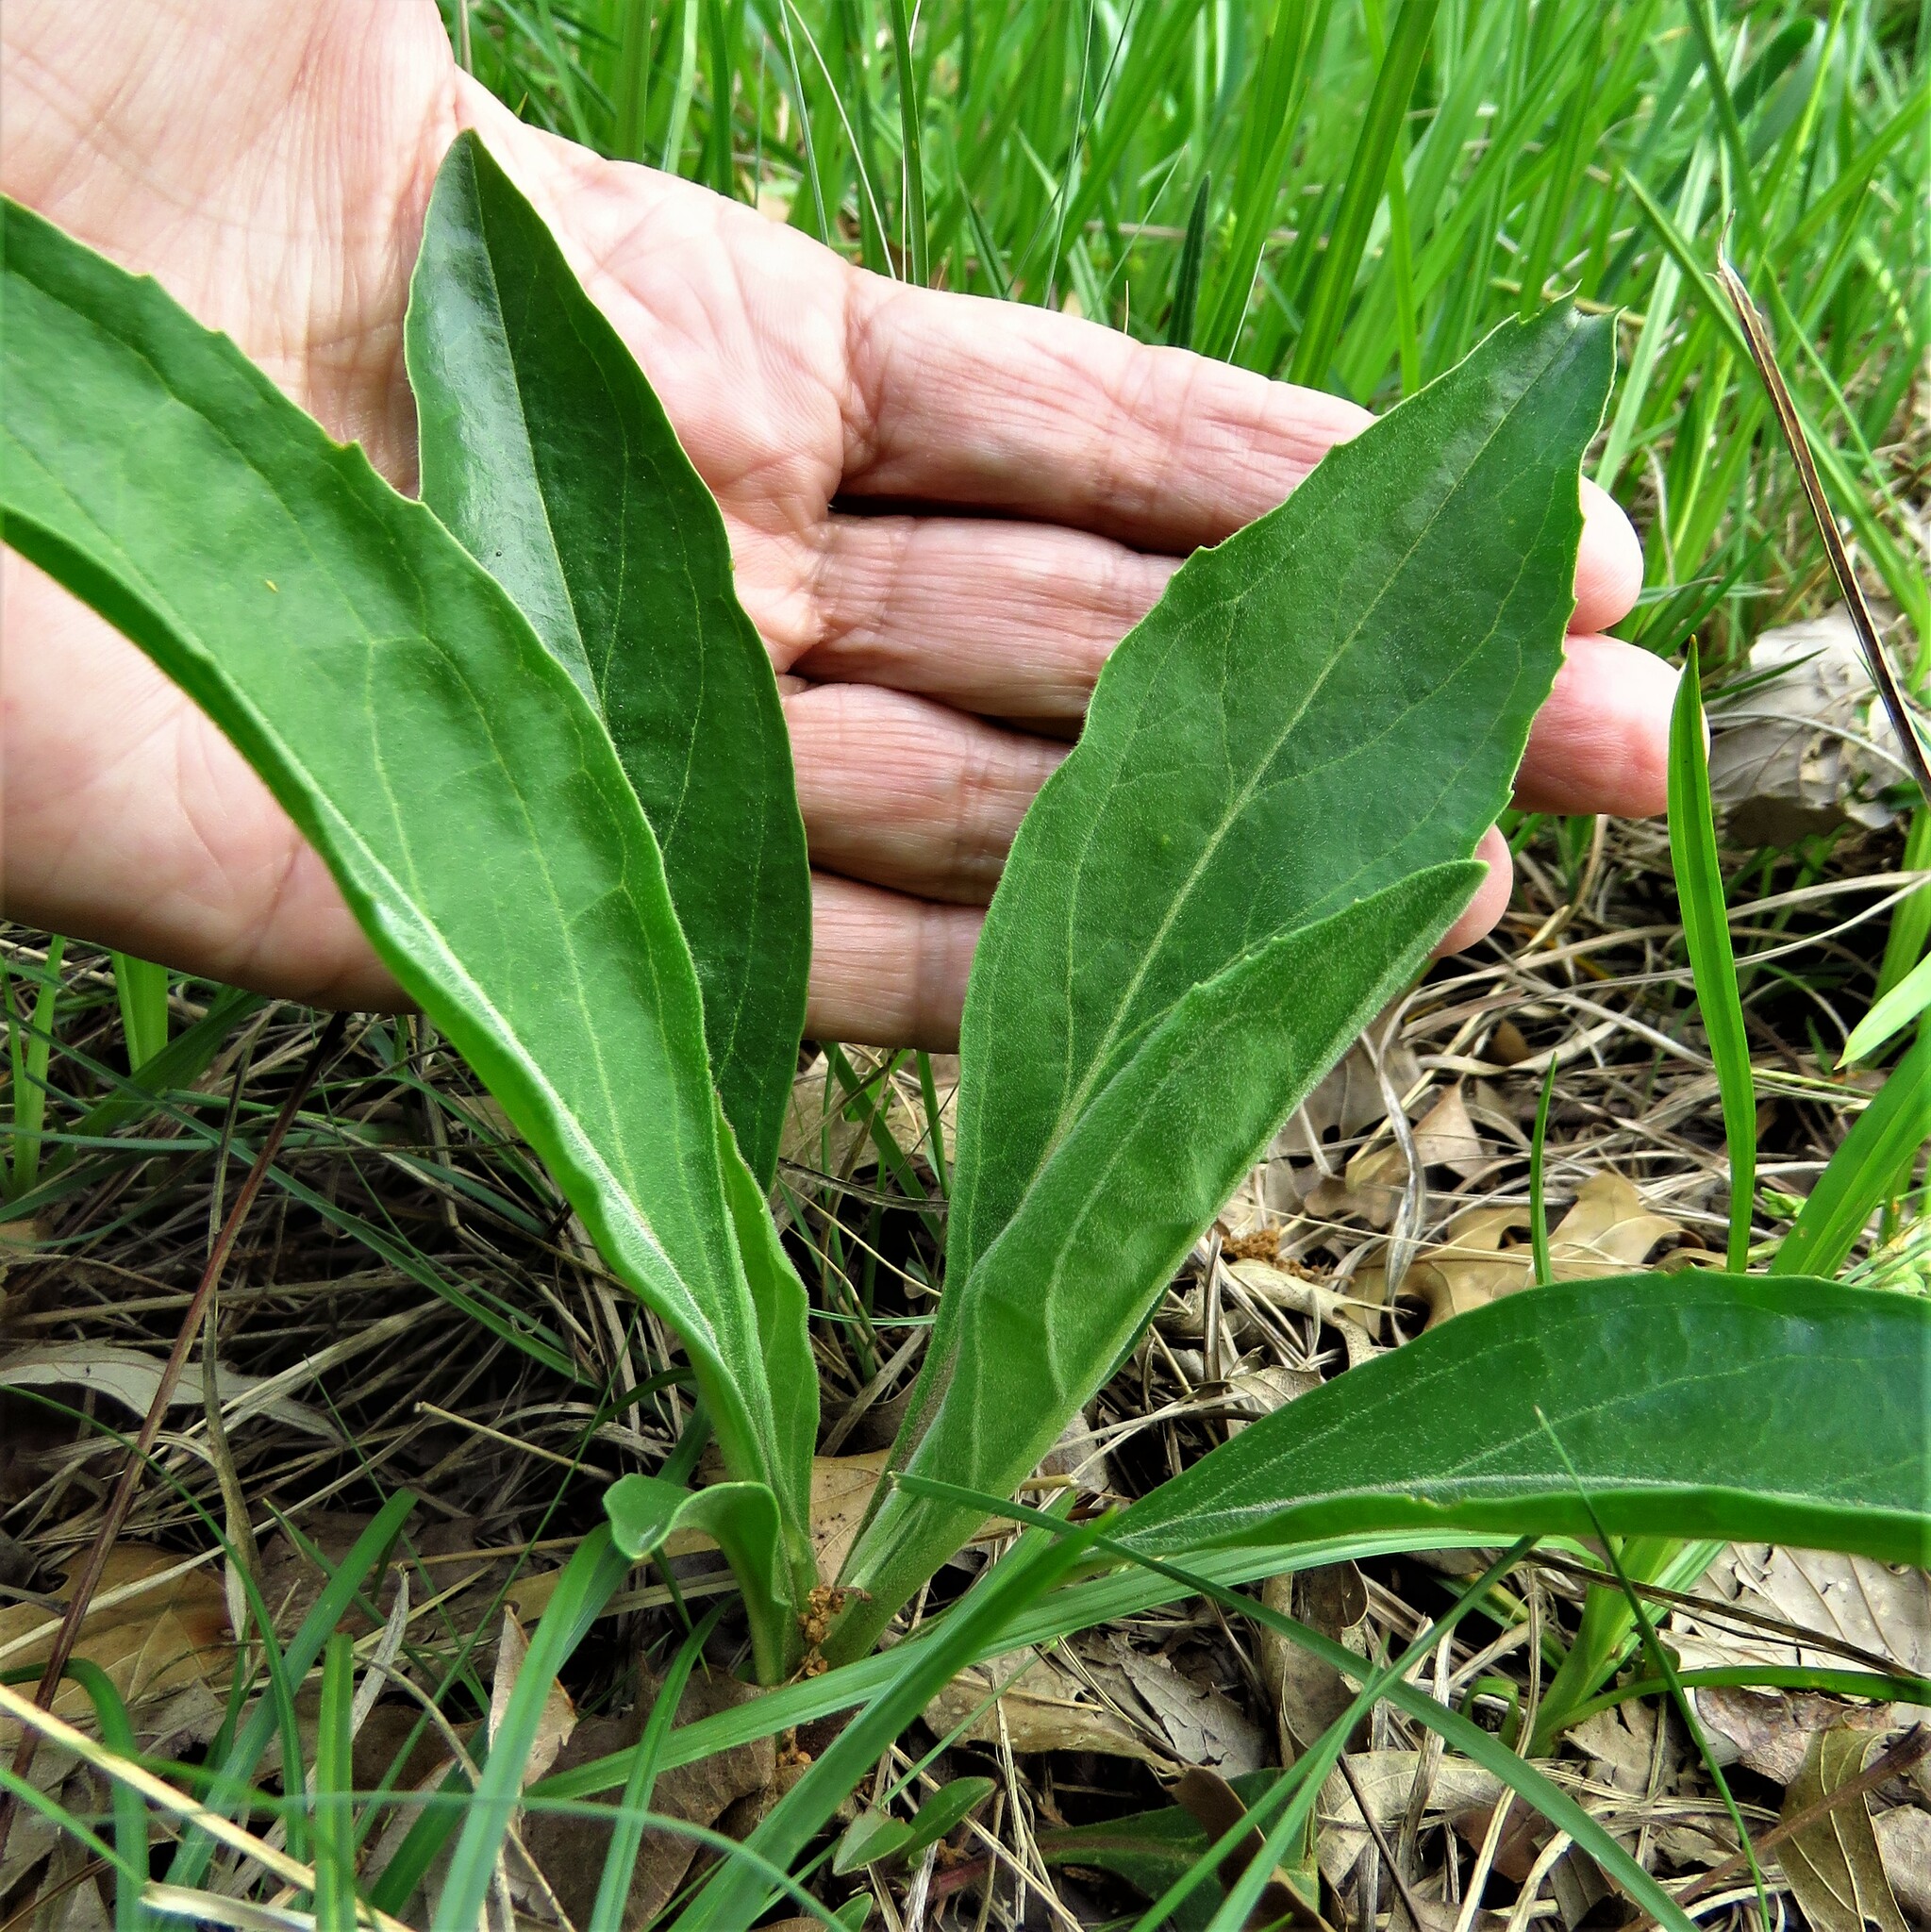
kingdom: Plantae
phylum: Tracheophyta
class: Magnoliopsida
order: Lamiales
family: Plantaginaceae
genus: Penstemon
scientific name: Penstemon cobaea
